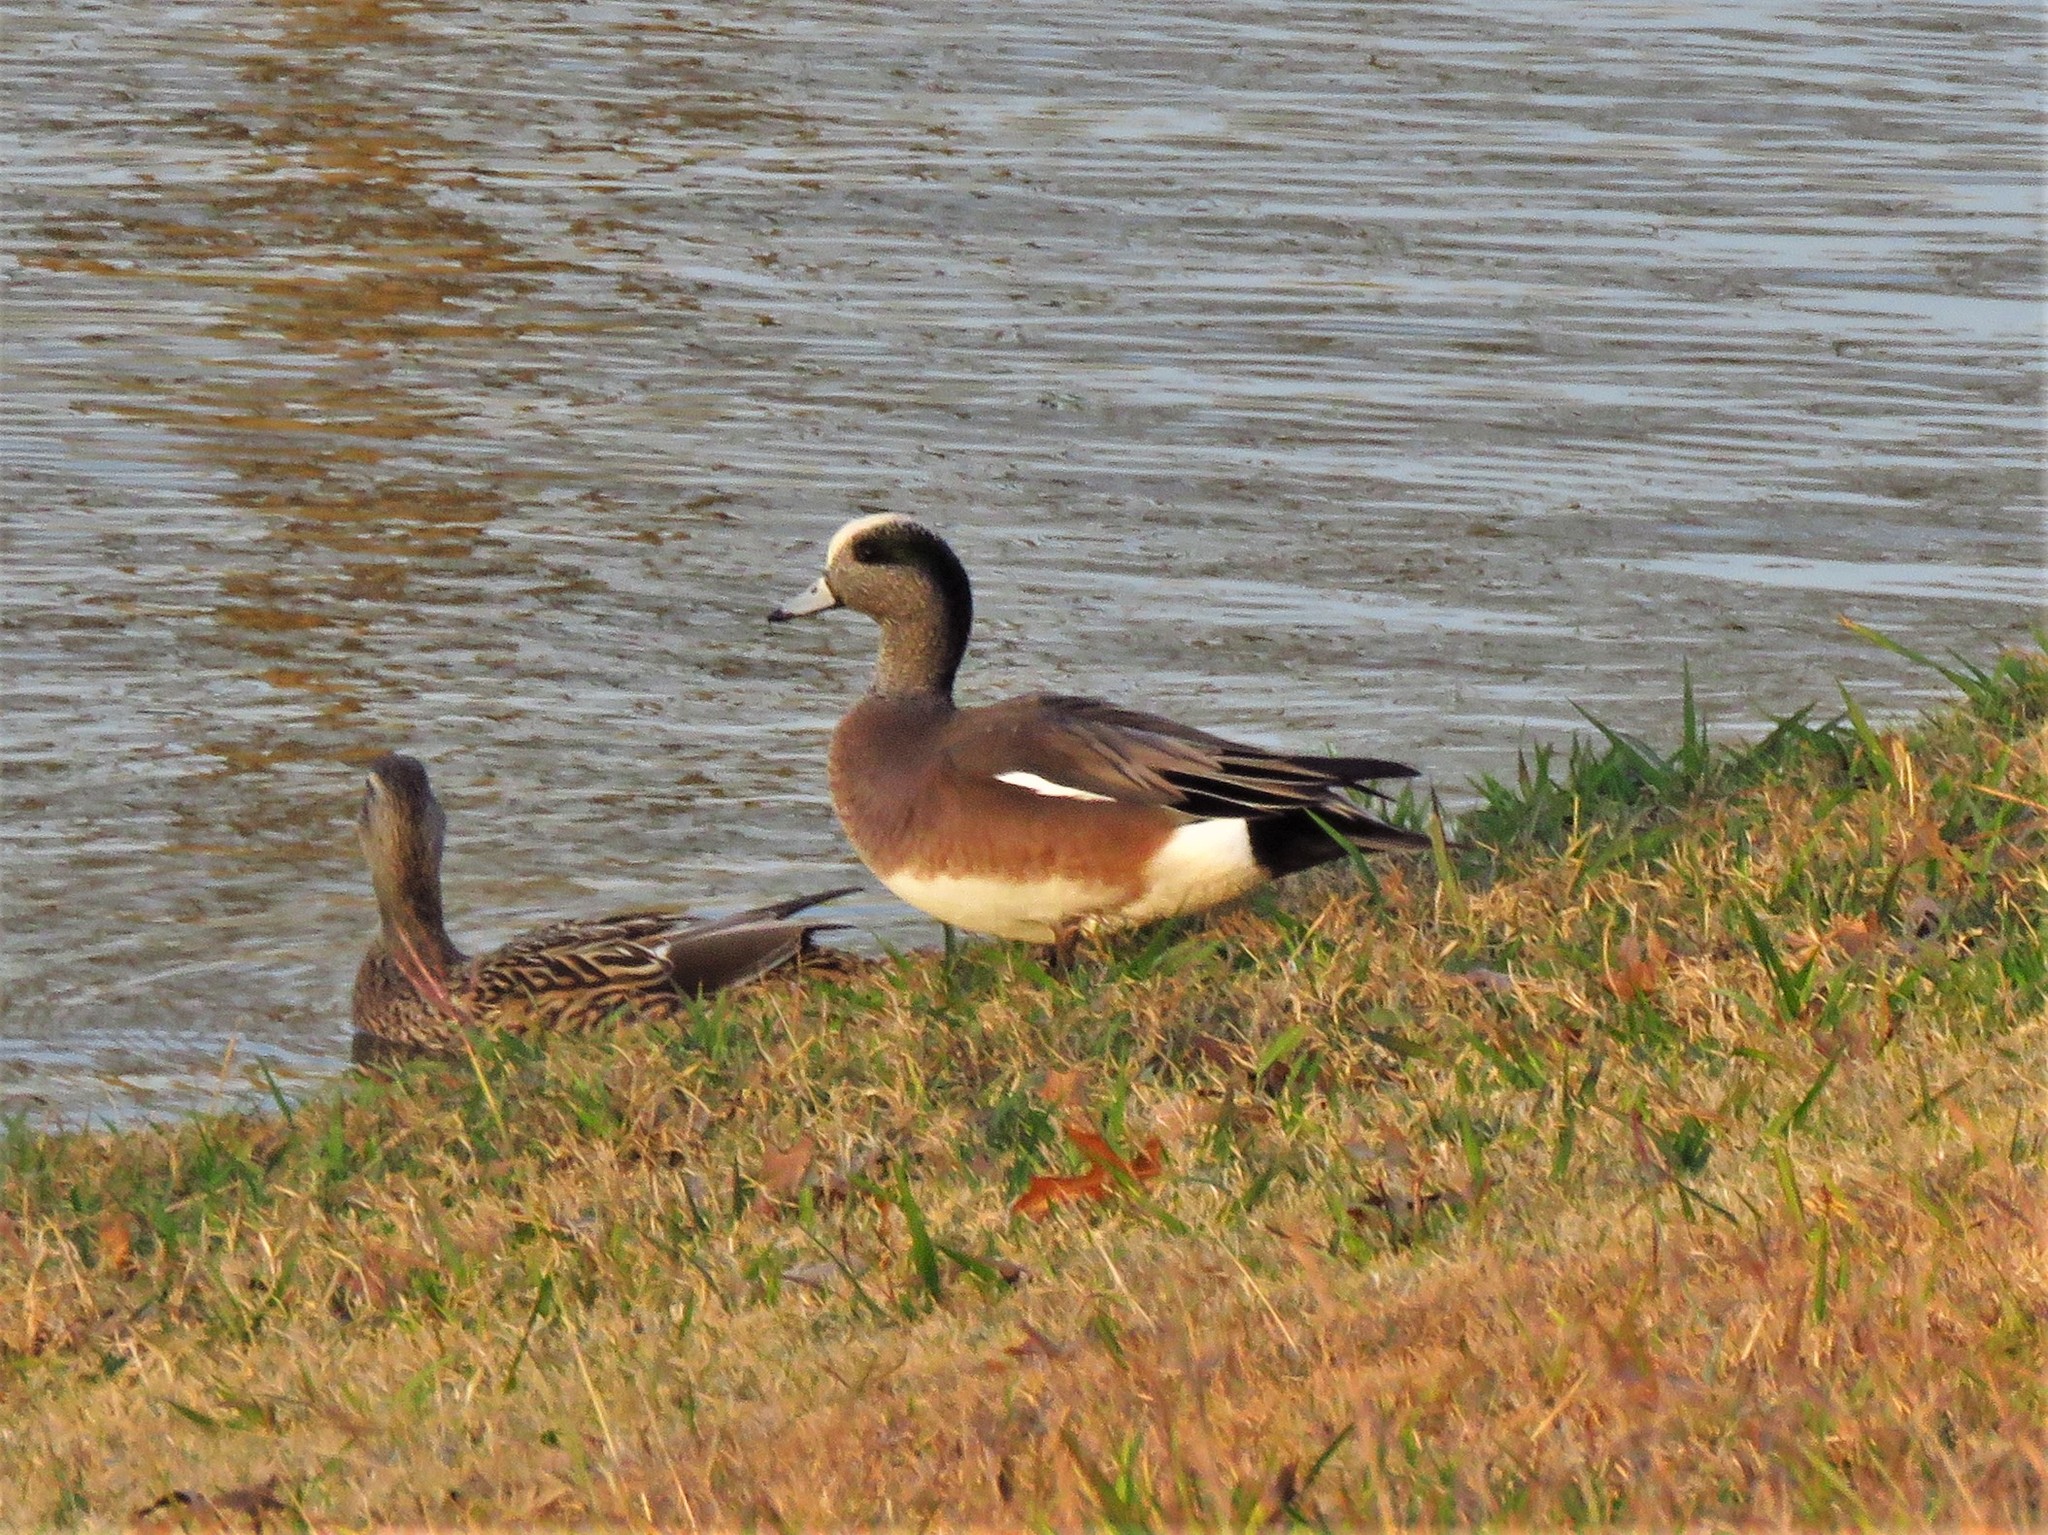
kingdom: Animalia
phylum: Chordata
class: Aves
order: Anseriformes
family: Anatidae
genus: Mareca
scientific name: Mareca americana
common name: American wigeon
